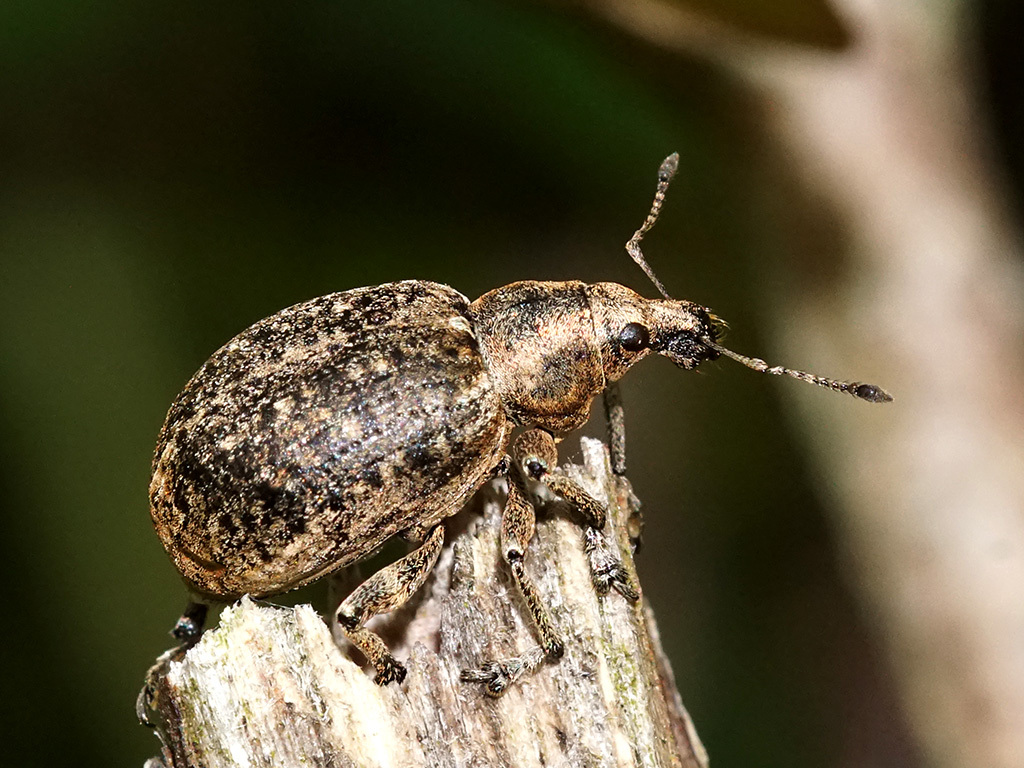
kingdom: Animalia
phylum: Arthropoda
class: Insecta
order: Coleoptera
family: Curculionidae
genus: Liophloeus
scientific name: Liophloeus tessulatus
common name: Weevil
